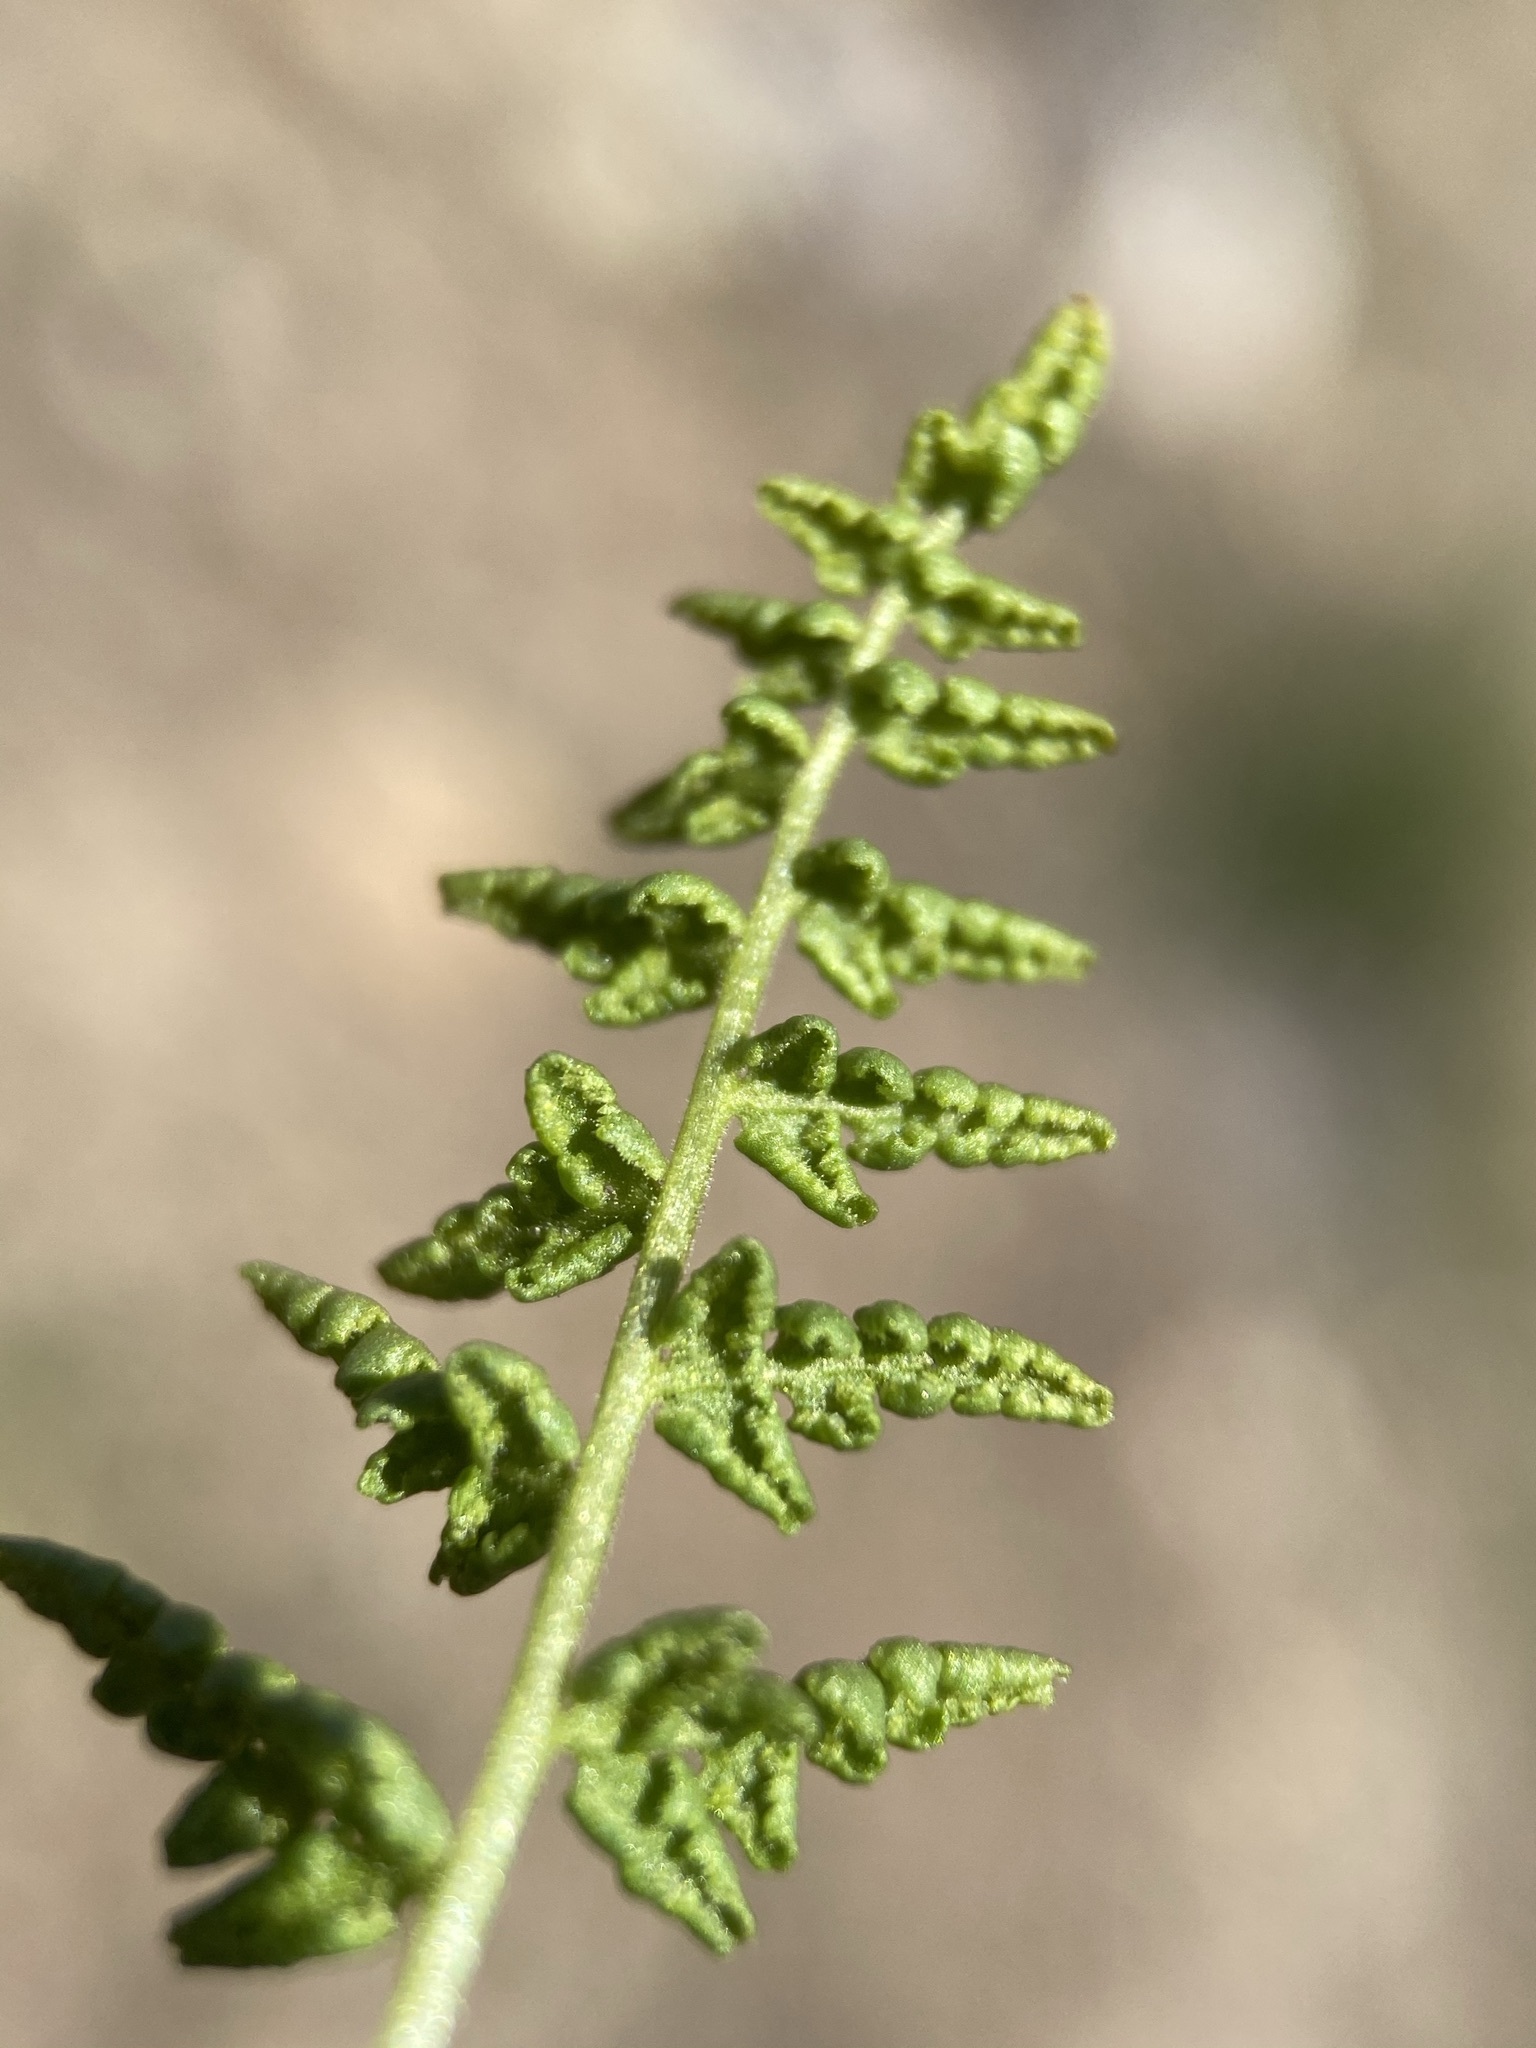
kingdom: Plantae
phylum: Tracheophyta
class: Polypodiopsida
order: Polypodiales
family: Woodsiaceae
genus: Physematium
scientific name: Physematium oreganum
